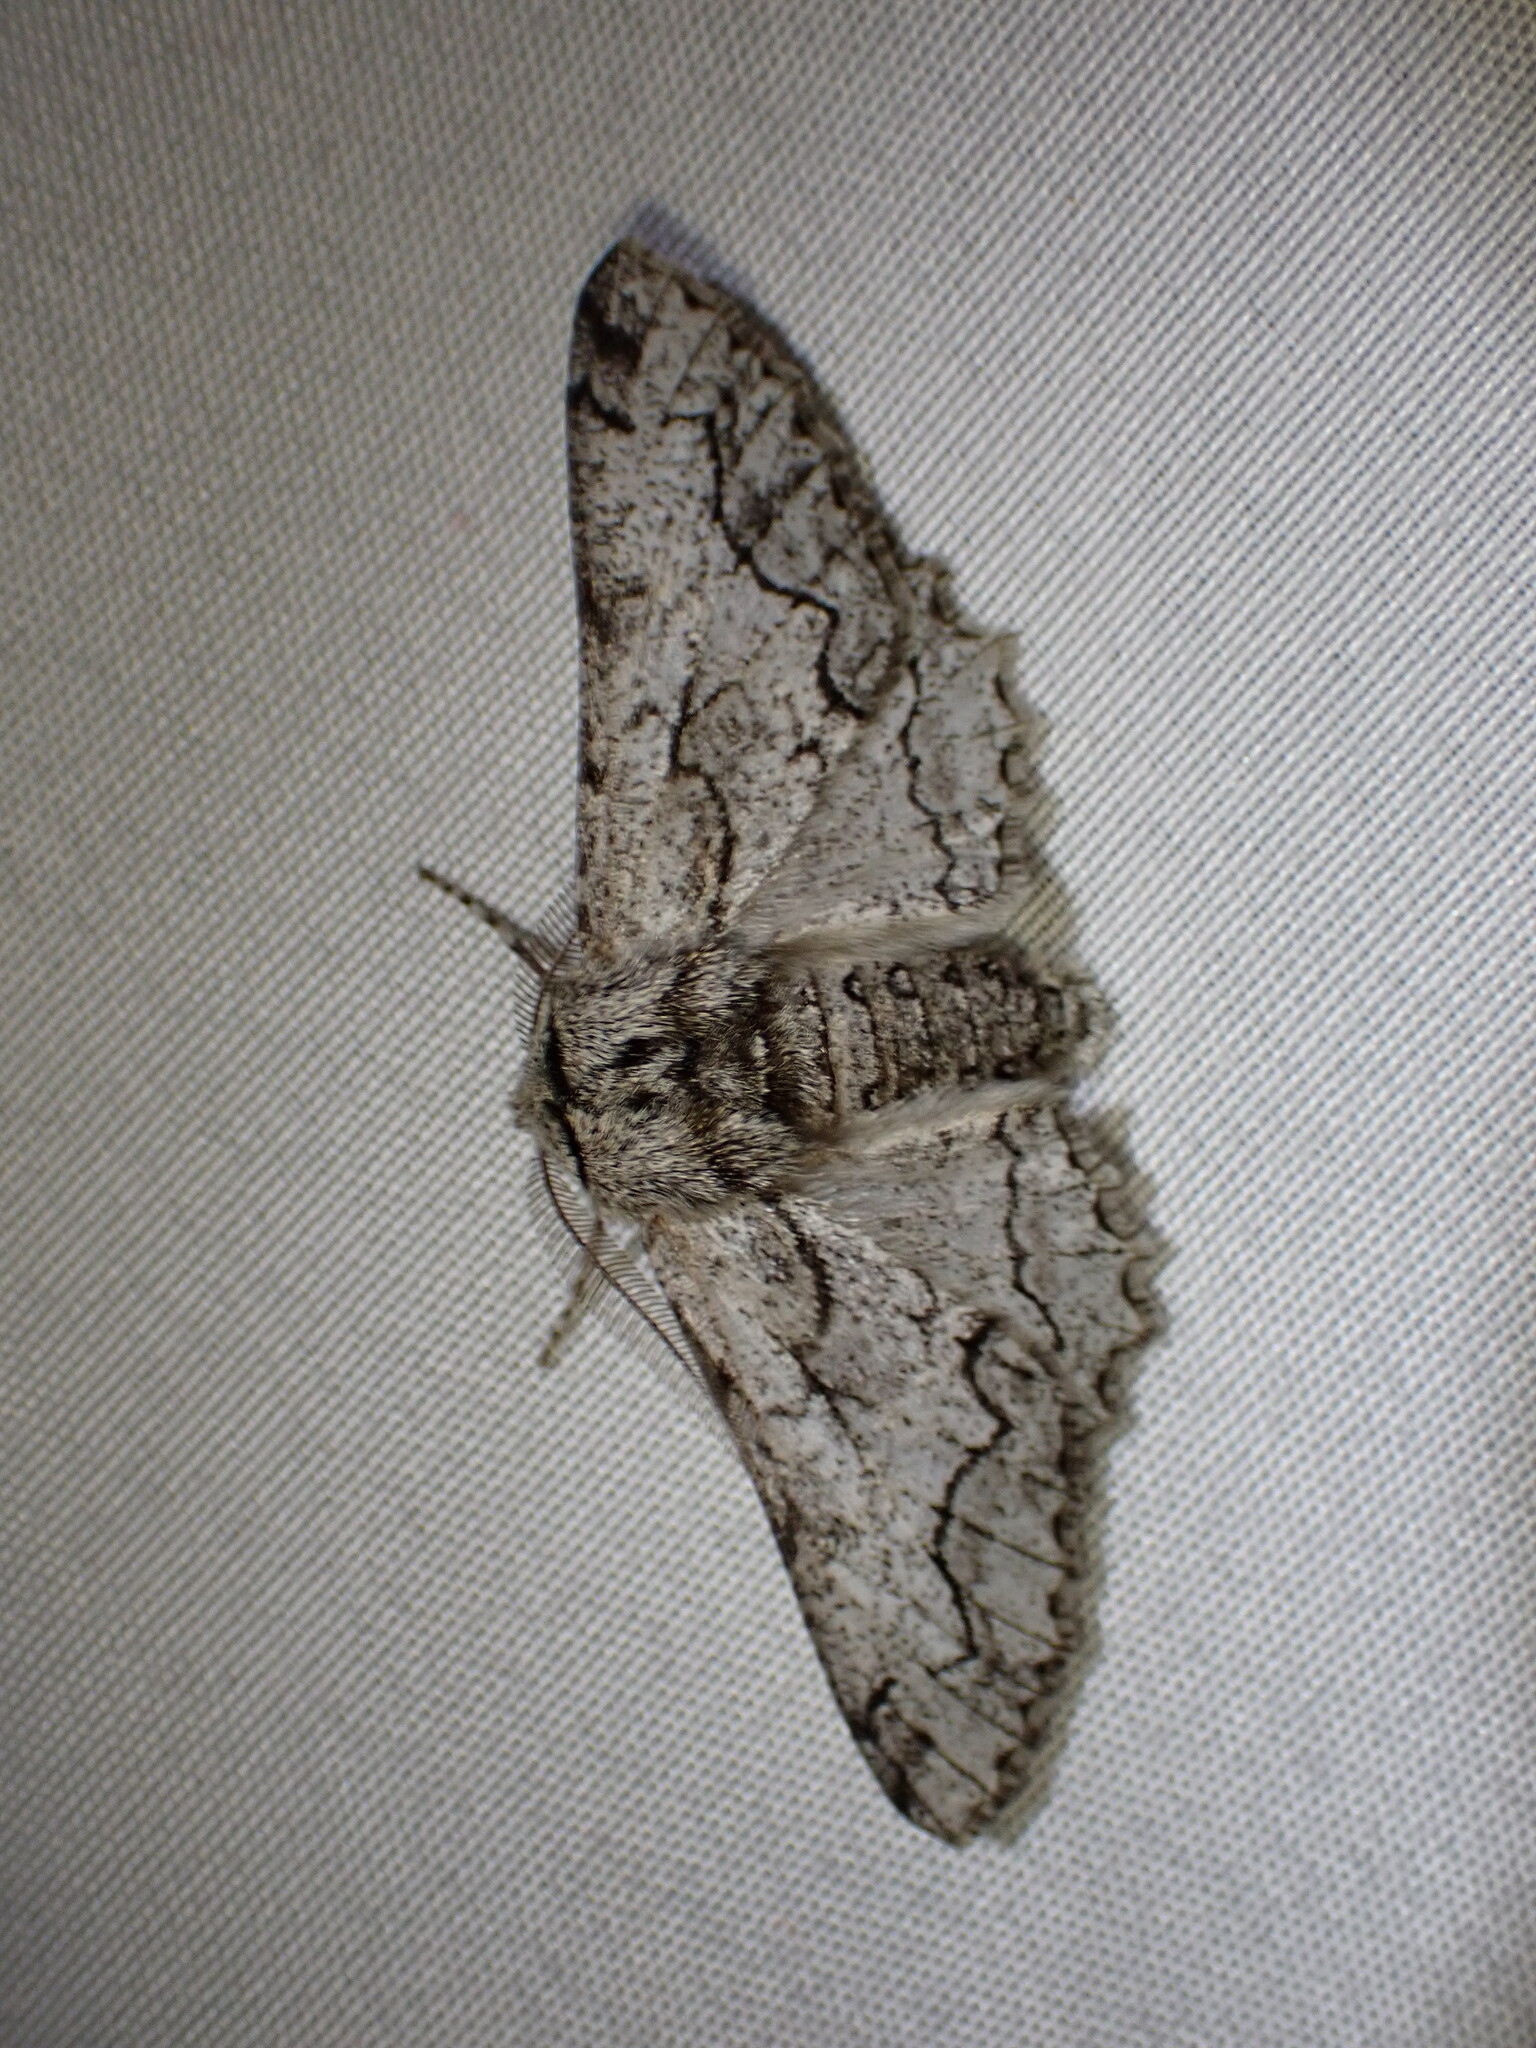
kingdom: Animalia
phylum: Arthropoda
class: Insecta
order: Lepidoptera
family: Geometridae
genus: Biston
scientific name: Biston sinuata
